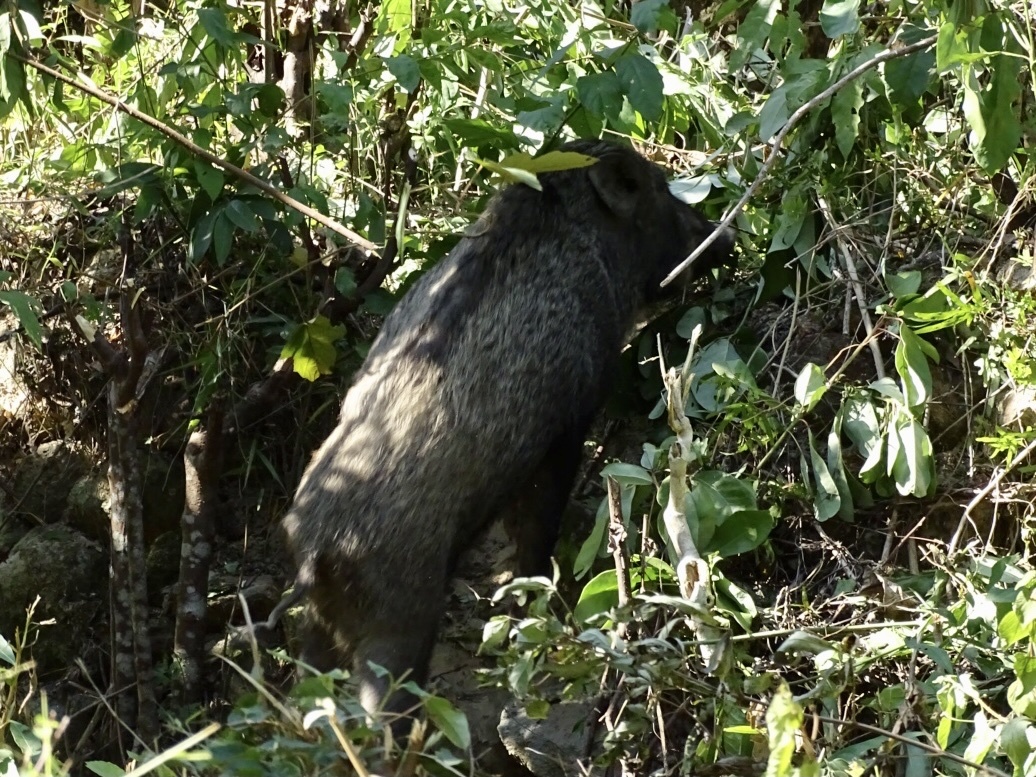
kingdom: Animalia
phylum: Chordata
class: Mammalia
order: Artiodactyla
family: Suidae
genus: Sus
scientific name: Sus scrofa
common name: Wild boar
